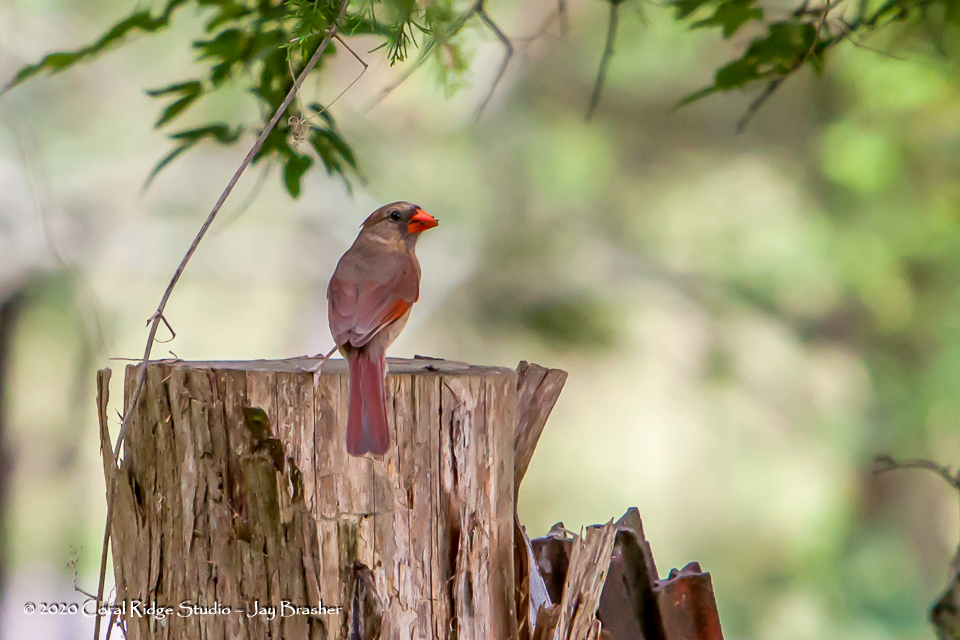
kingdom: Animalia
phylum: Chordata
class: Aves
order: Passeriformes
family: Cardinalidae
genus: Cardinalis
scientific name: Cardinalis cardinalis
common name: Northern cardinal
